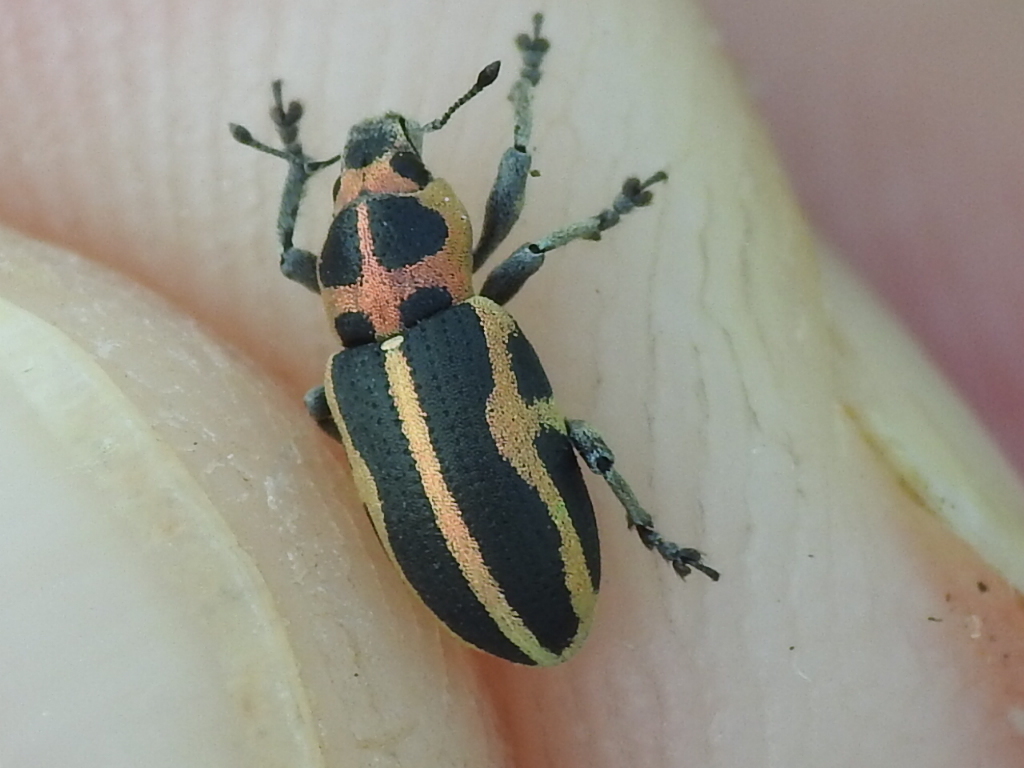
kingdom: Animalia
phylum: Arthropoda
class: Insecta
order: Coleoptera
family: Curculionidae
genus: Eudiagogus
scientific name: Eudiagogus pulcher
